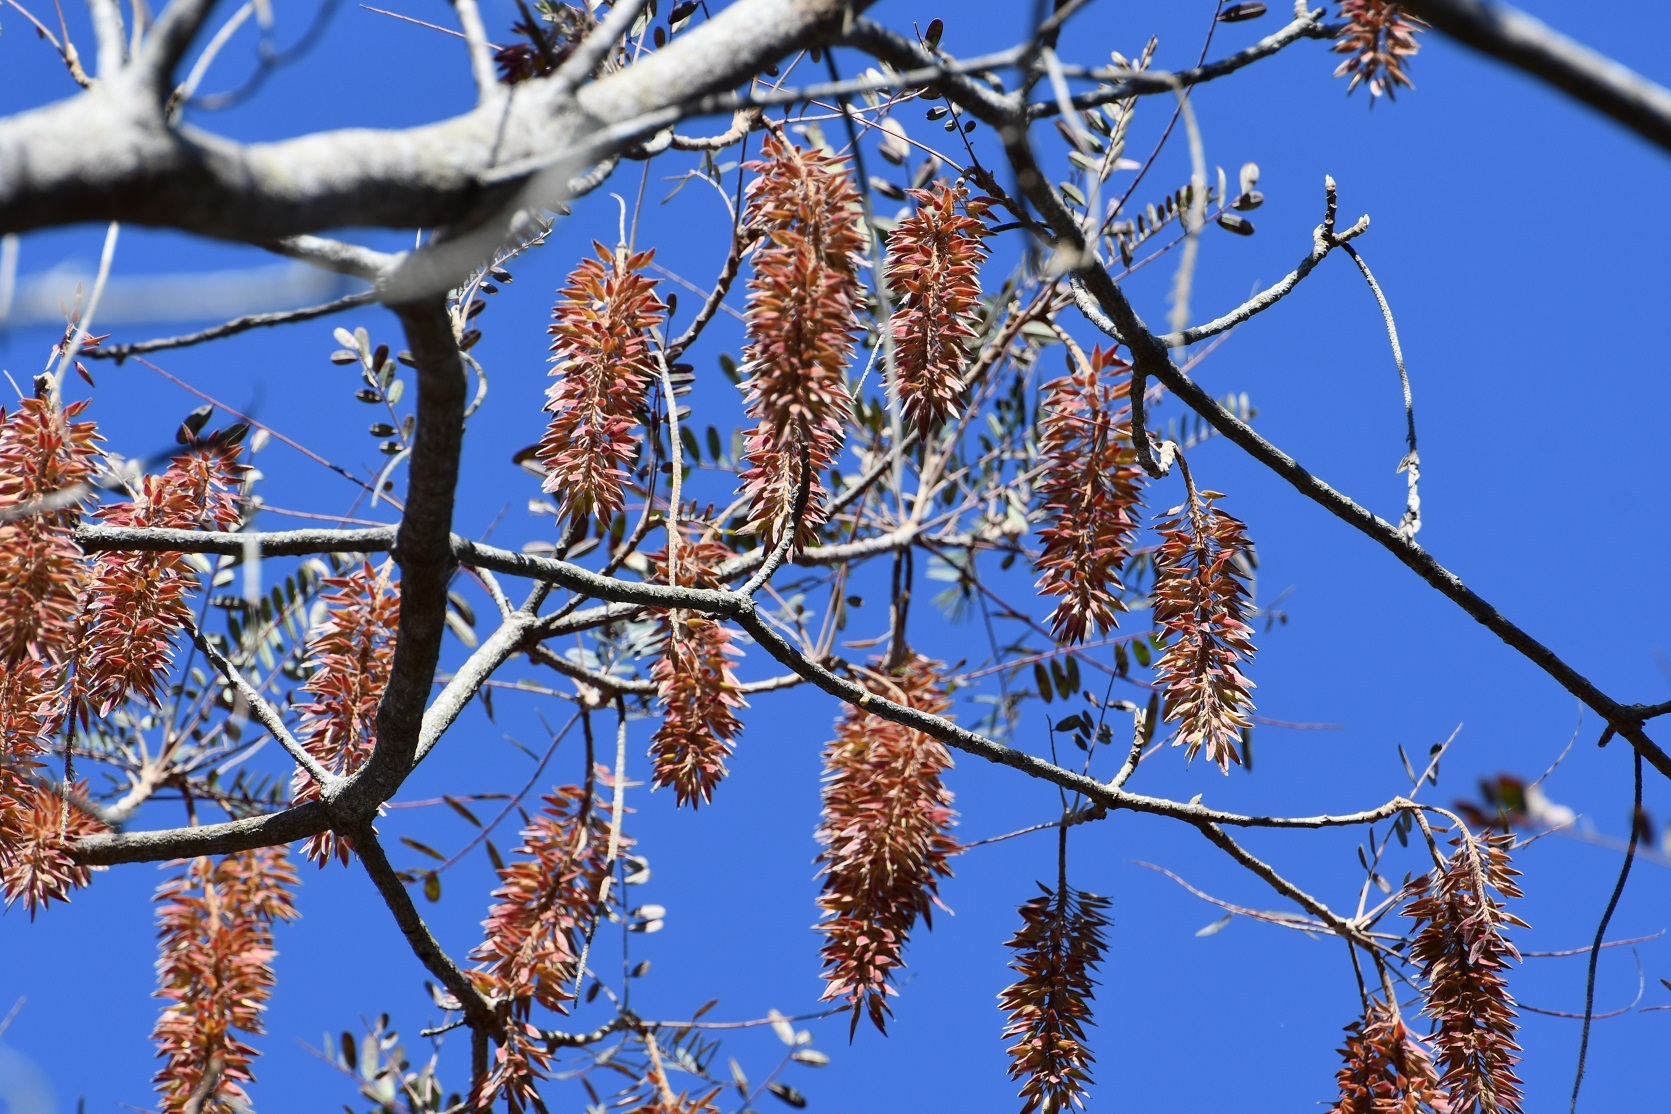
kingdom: Plantae
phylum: Tracheophyta
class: Magnoliopsida
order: Picramniales
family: Picramniaceae
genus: Alvaradoa
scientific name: Alvaradoa amorphoides
